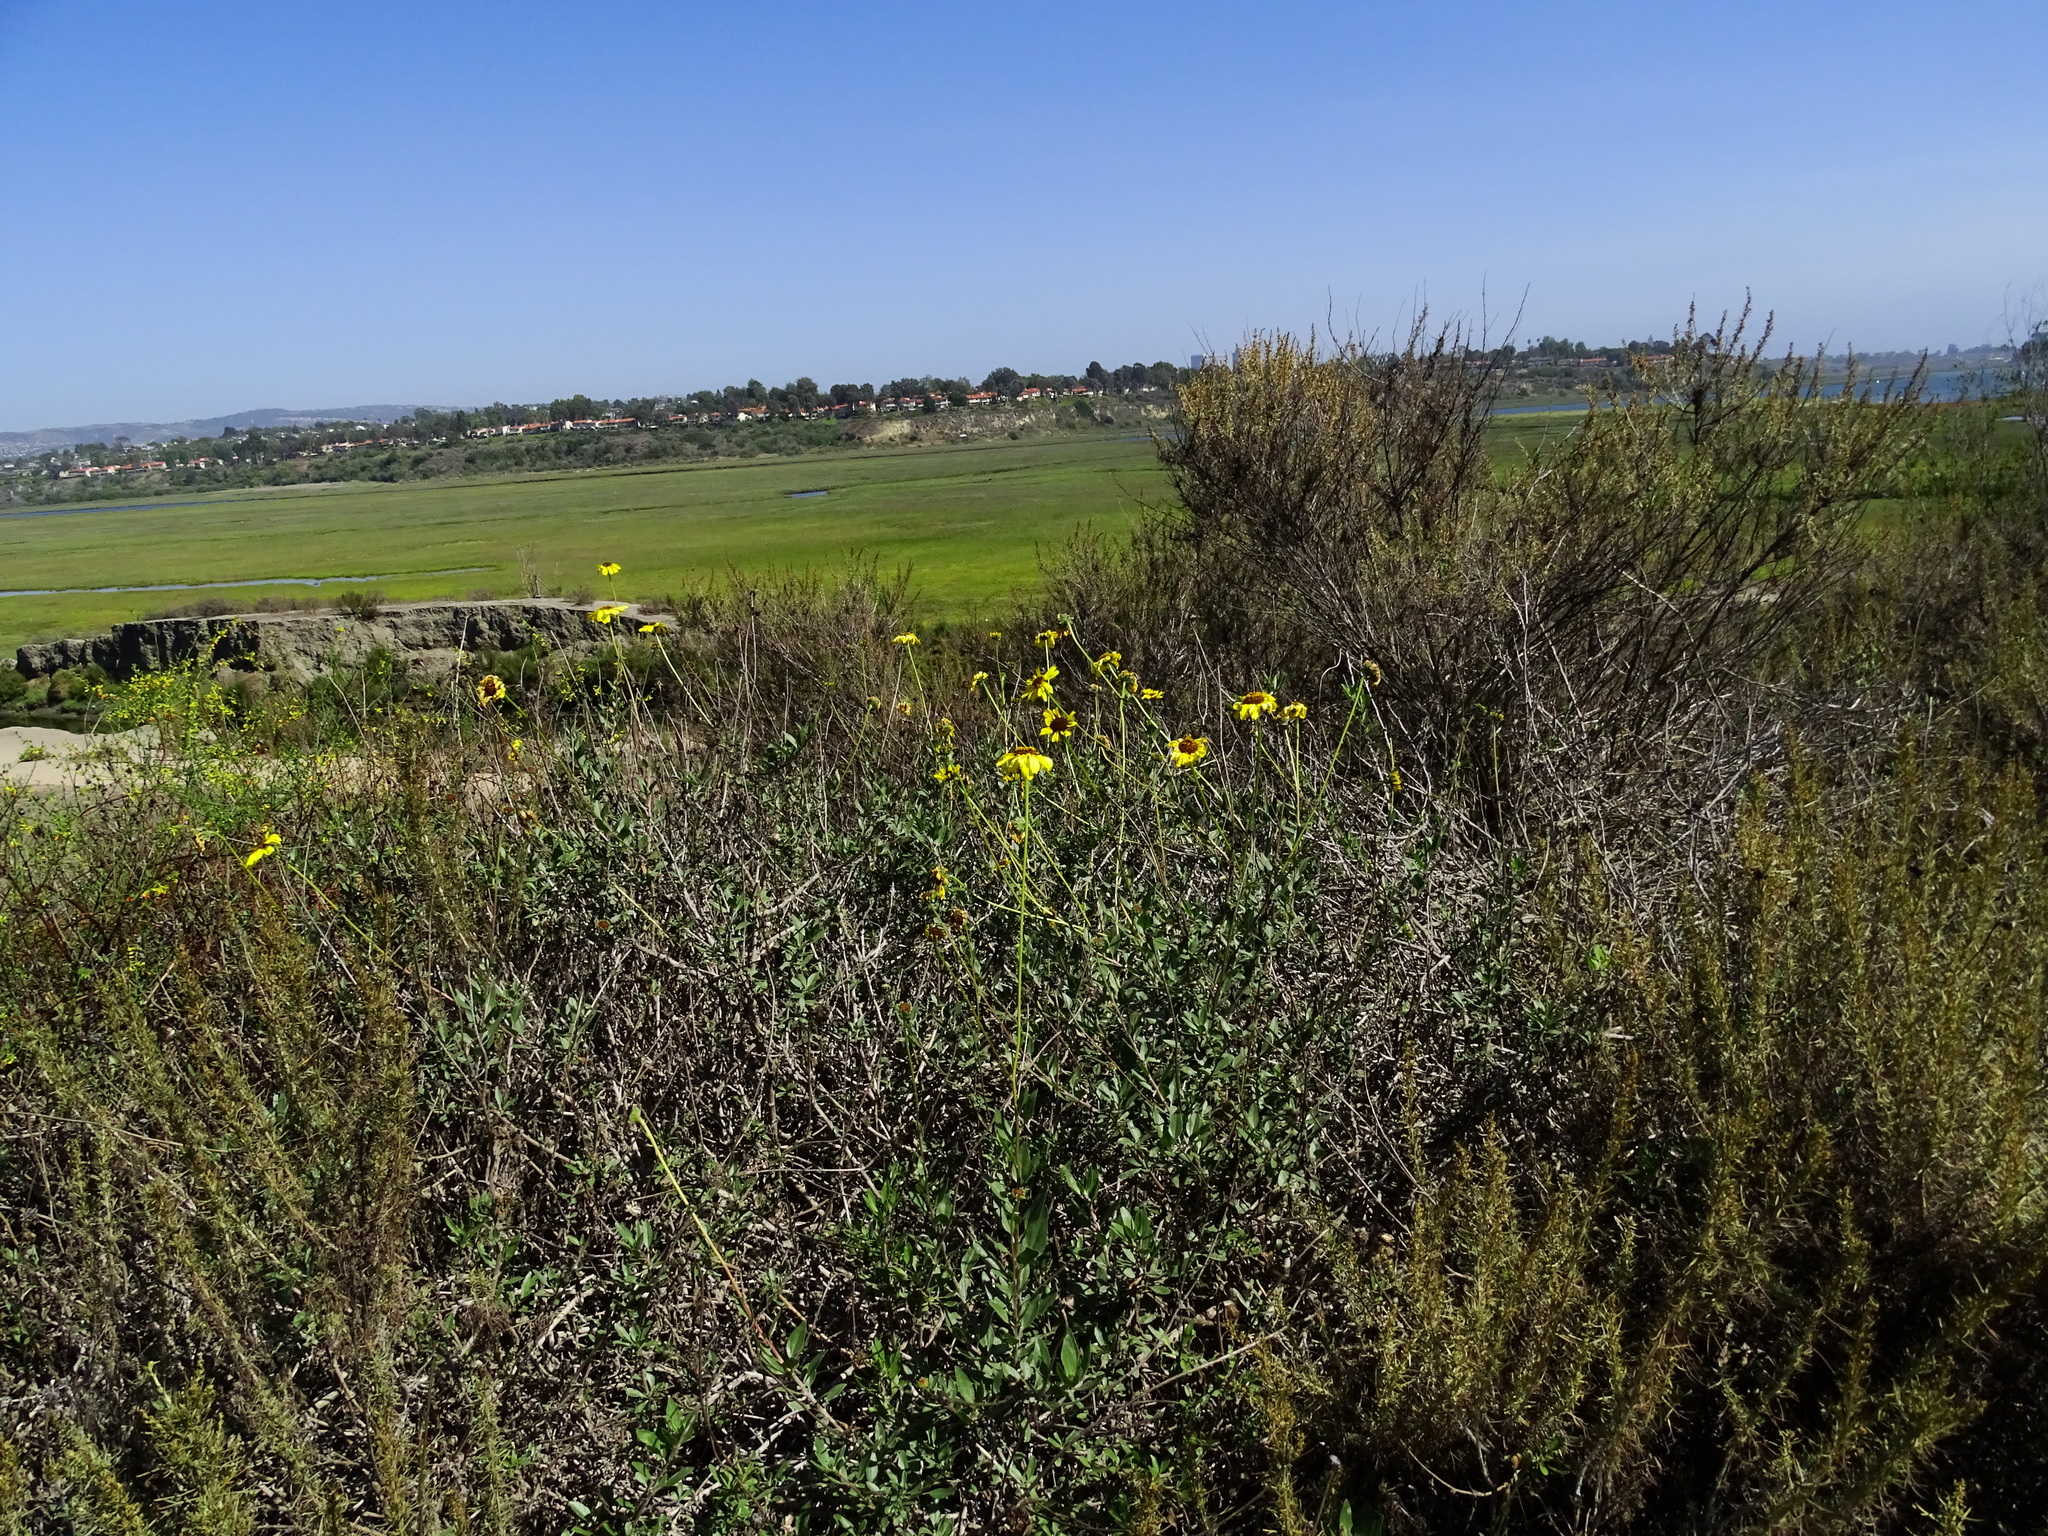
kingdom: Plantae
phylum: Tracheophyta
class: Magnoliopsida
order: Asterales
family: Asteraceae
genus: Encelia
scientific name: Encelia californica
